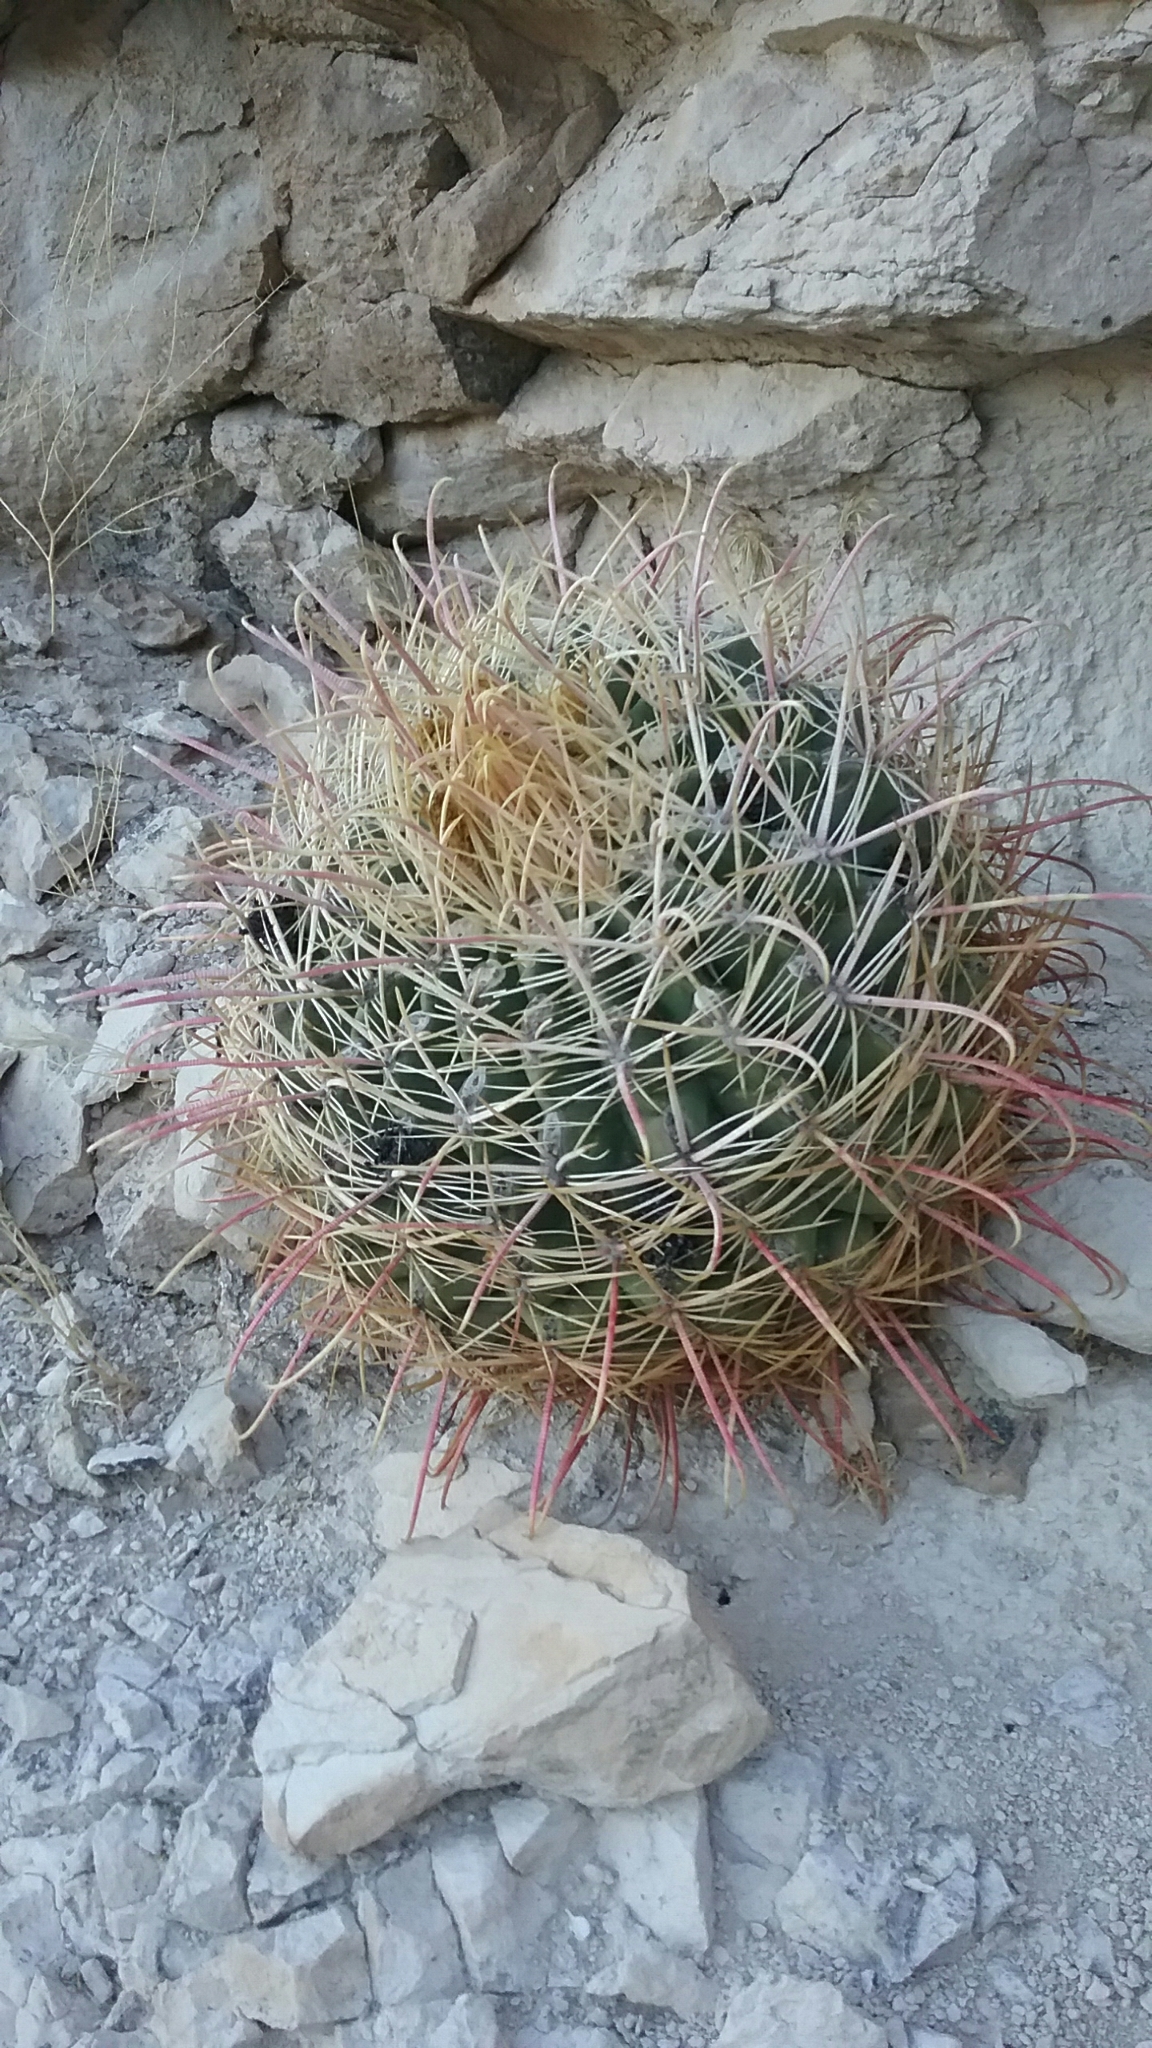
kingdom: Plantae
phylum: Tracheophyta
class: Magnoliopsida
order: Caryophyllales
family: Cactaceae
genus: Ferocactus
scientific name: Ferocactus cylindraceus
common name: California barrel cactus
